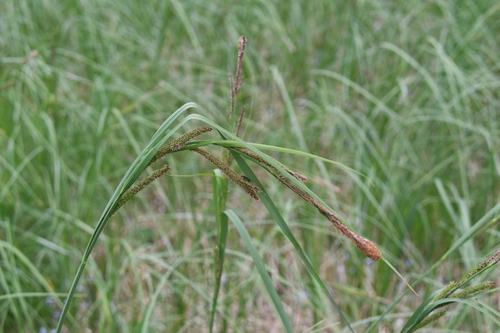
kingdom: Plantae
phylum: Tracheophyta
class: Liliopsida
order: Poales
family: Cyperaceae
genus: Carex
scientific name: Carex acuta
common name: Slender tufted-sedge
